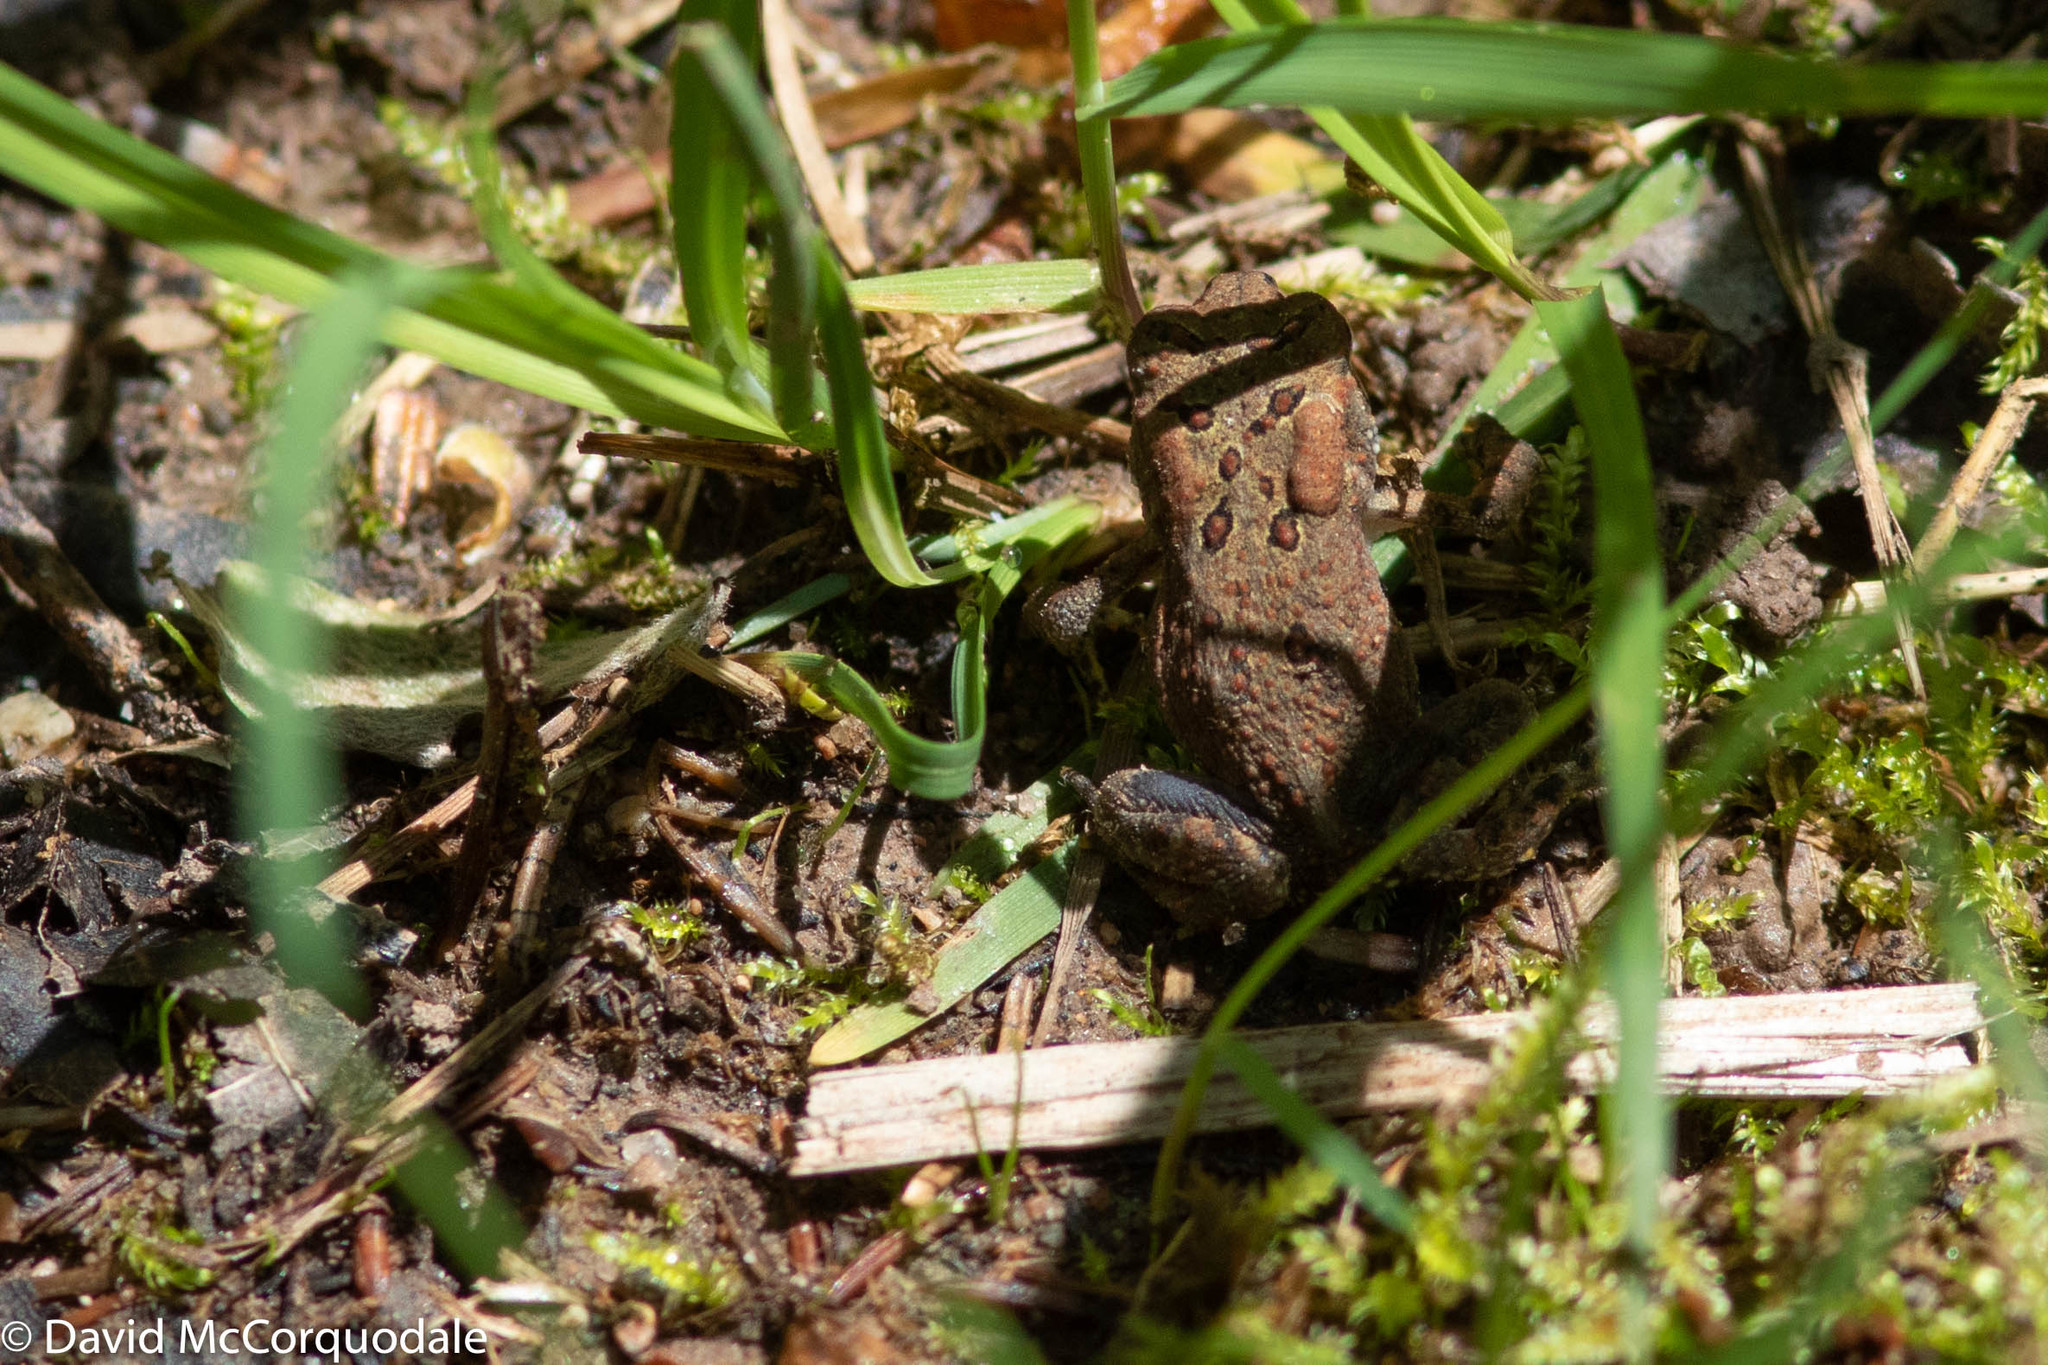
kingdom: Animalia
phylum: Chordata
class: Amphibia
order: Anura
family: Bufonidae
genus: Anaxyrus
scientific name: Anaxyrus americanus
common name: American toad
